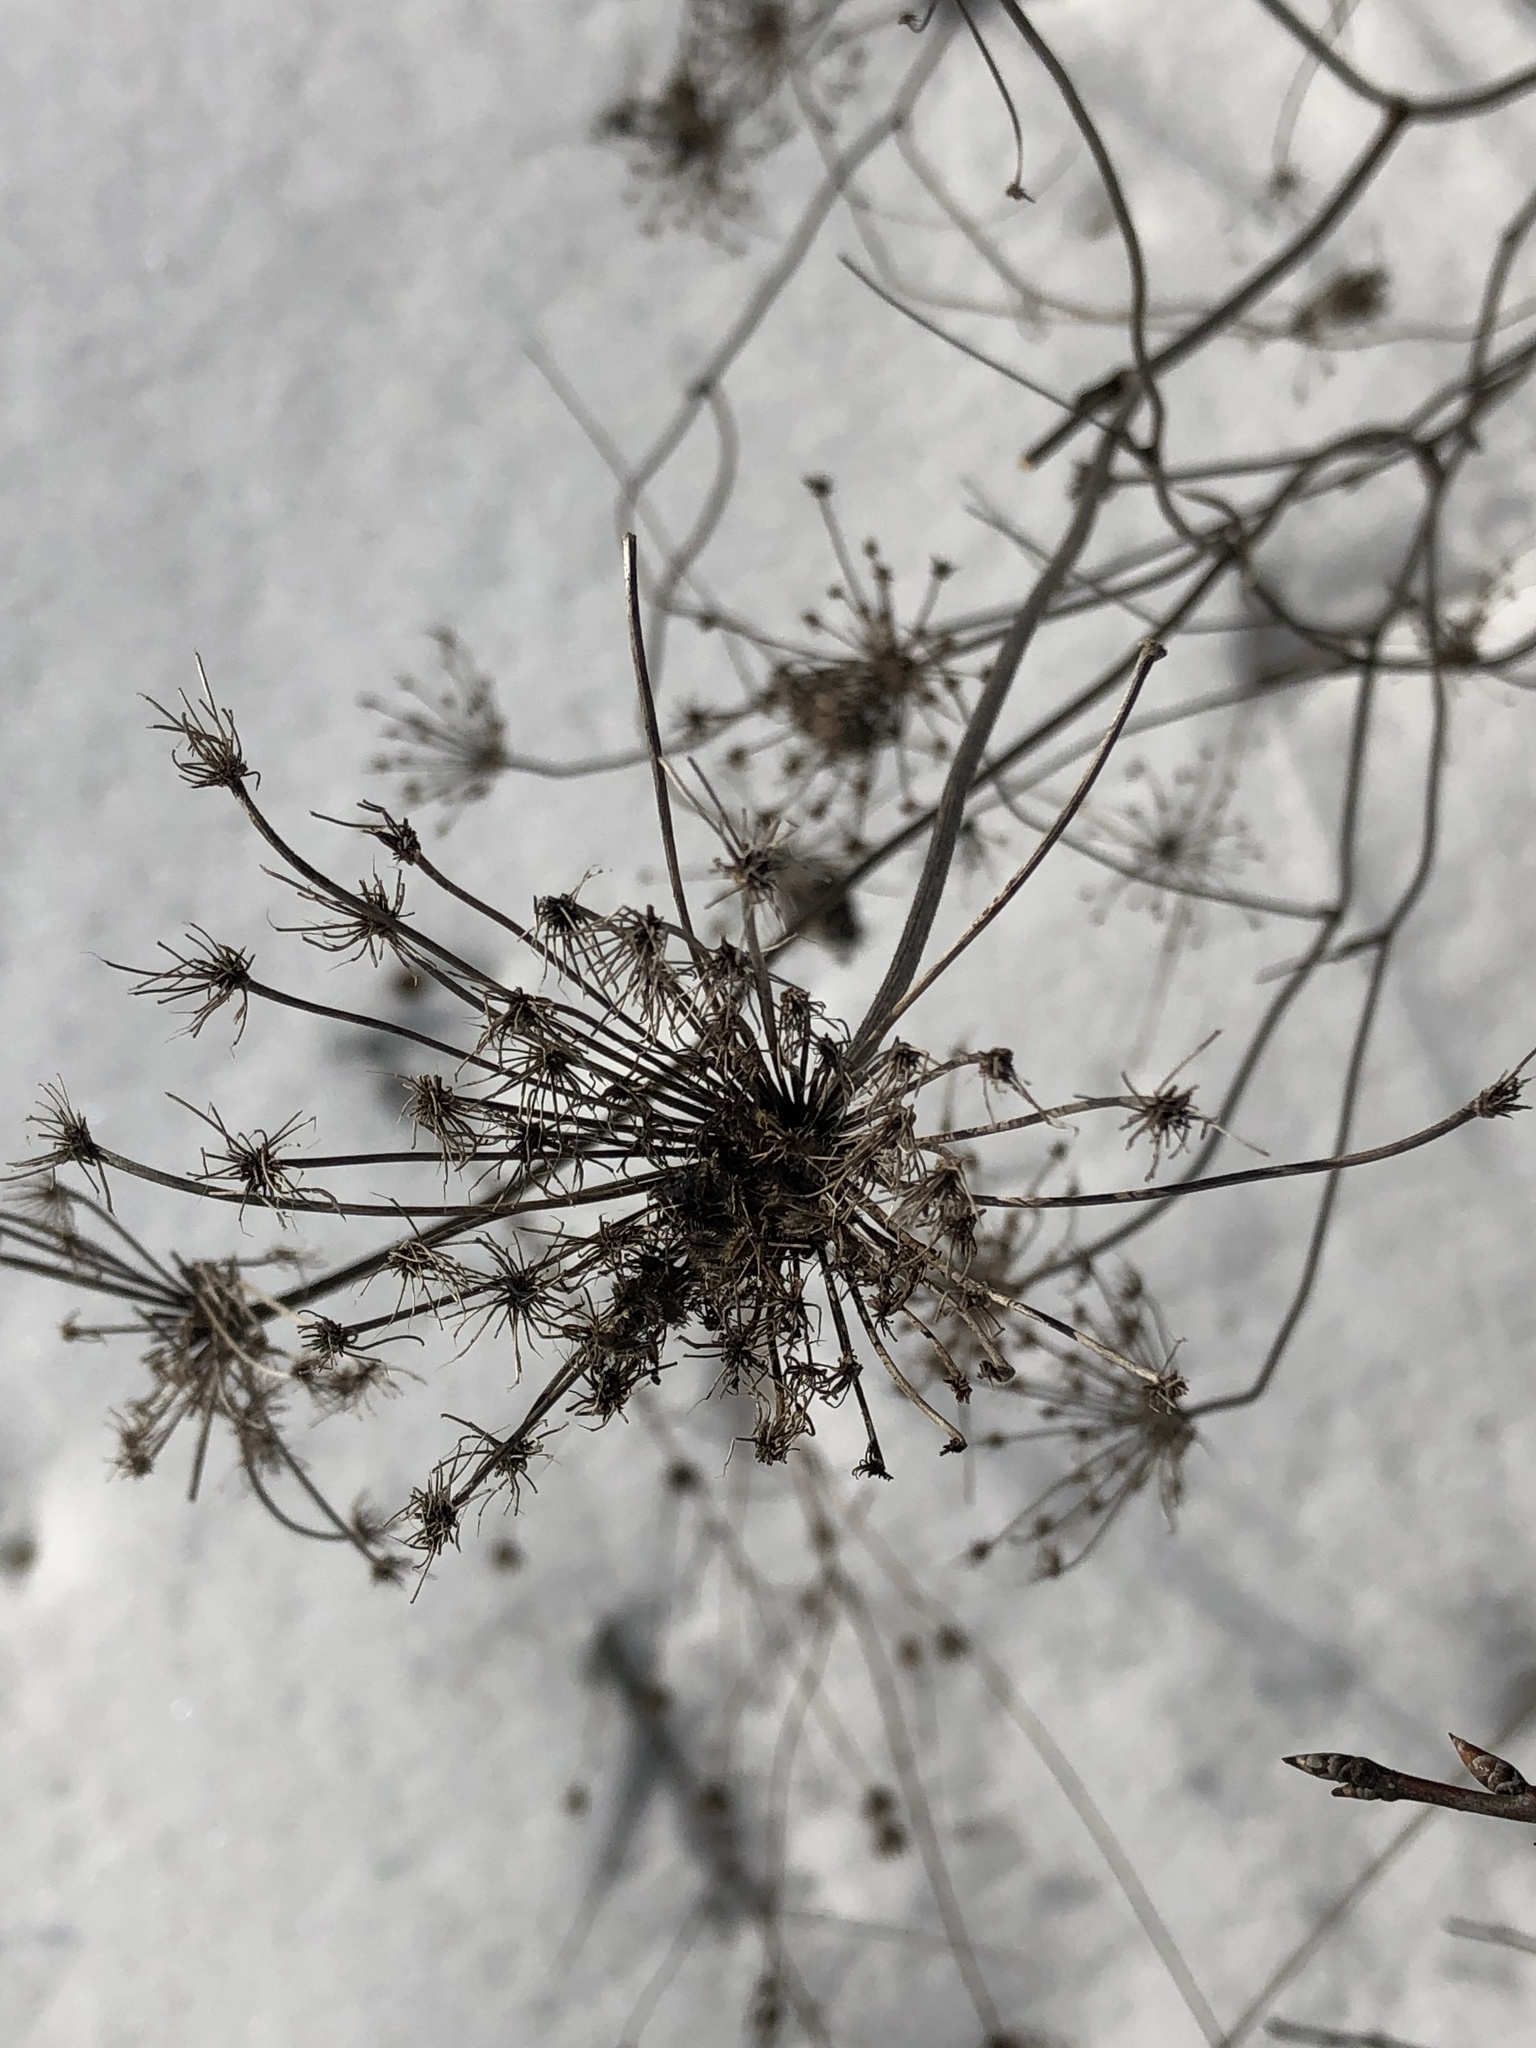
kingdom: Plantae
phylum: Tracheophyta
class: Magnoliopsida
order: Apiales
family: Apiaceae
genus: Daucus
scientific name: Daucus carota
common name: Wild carrot
